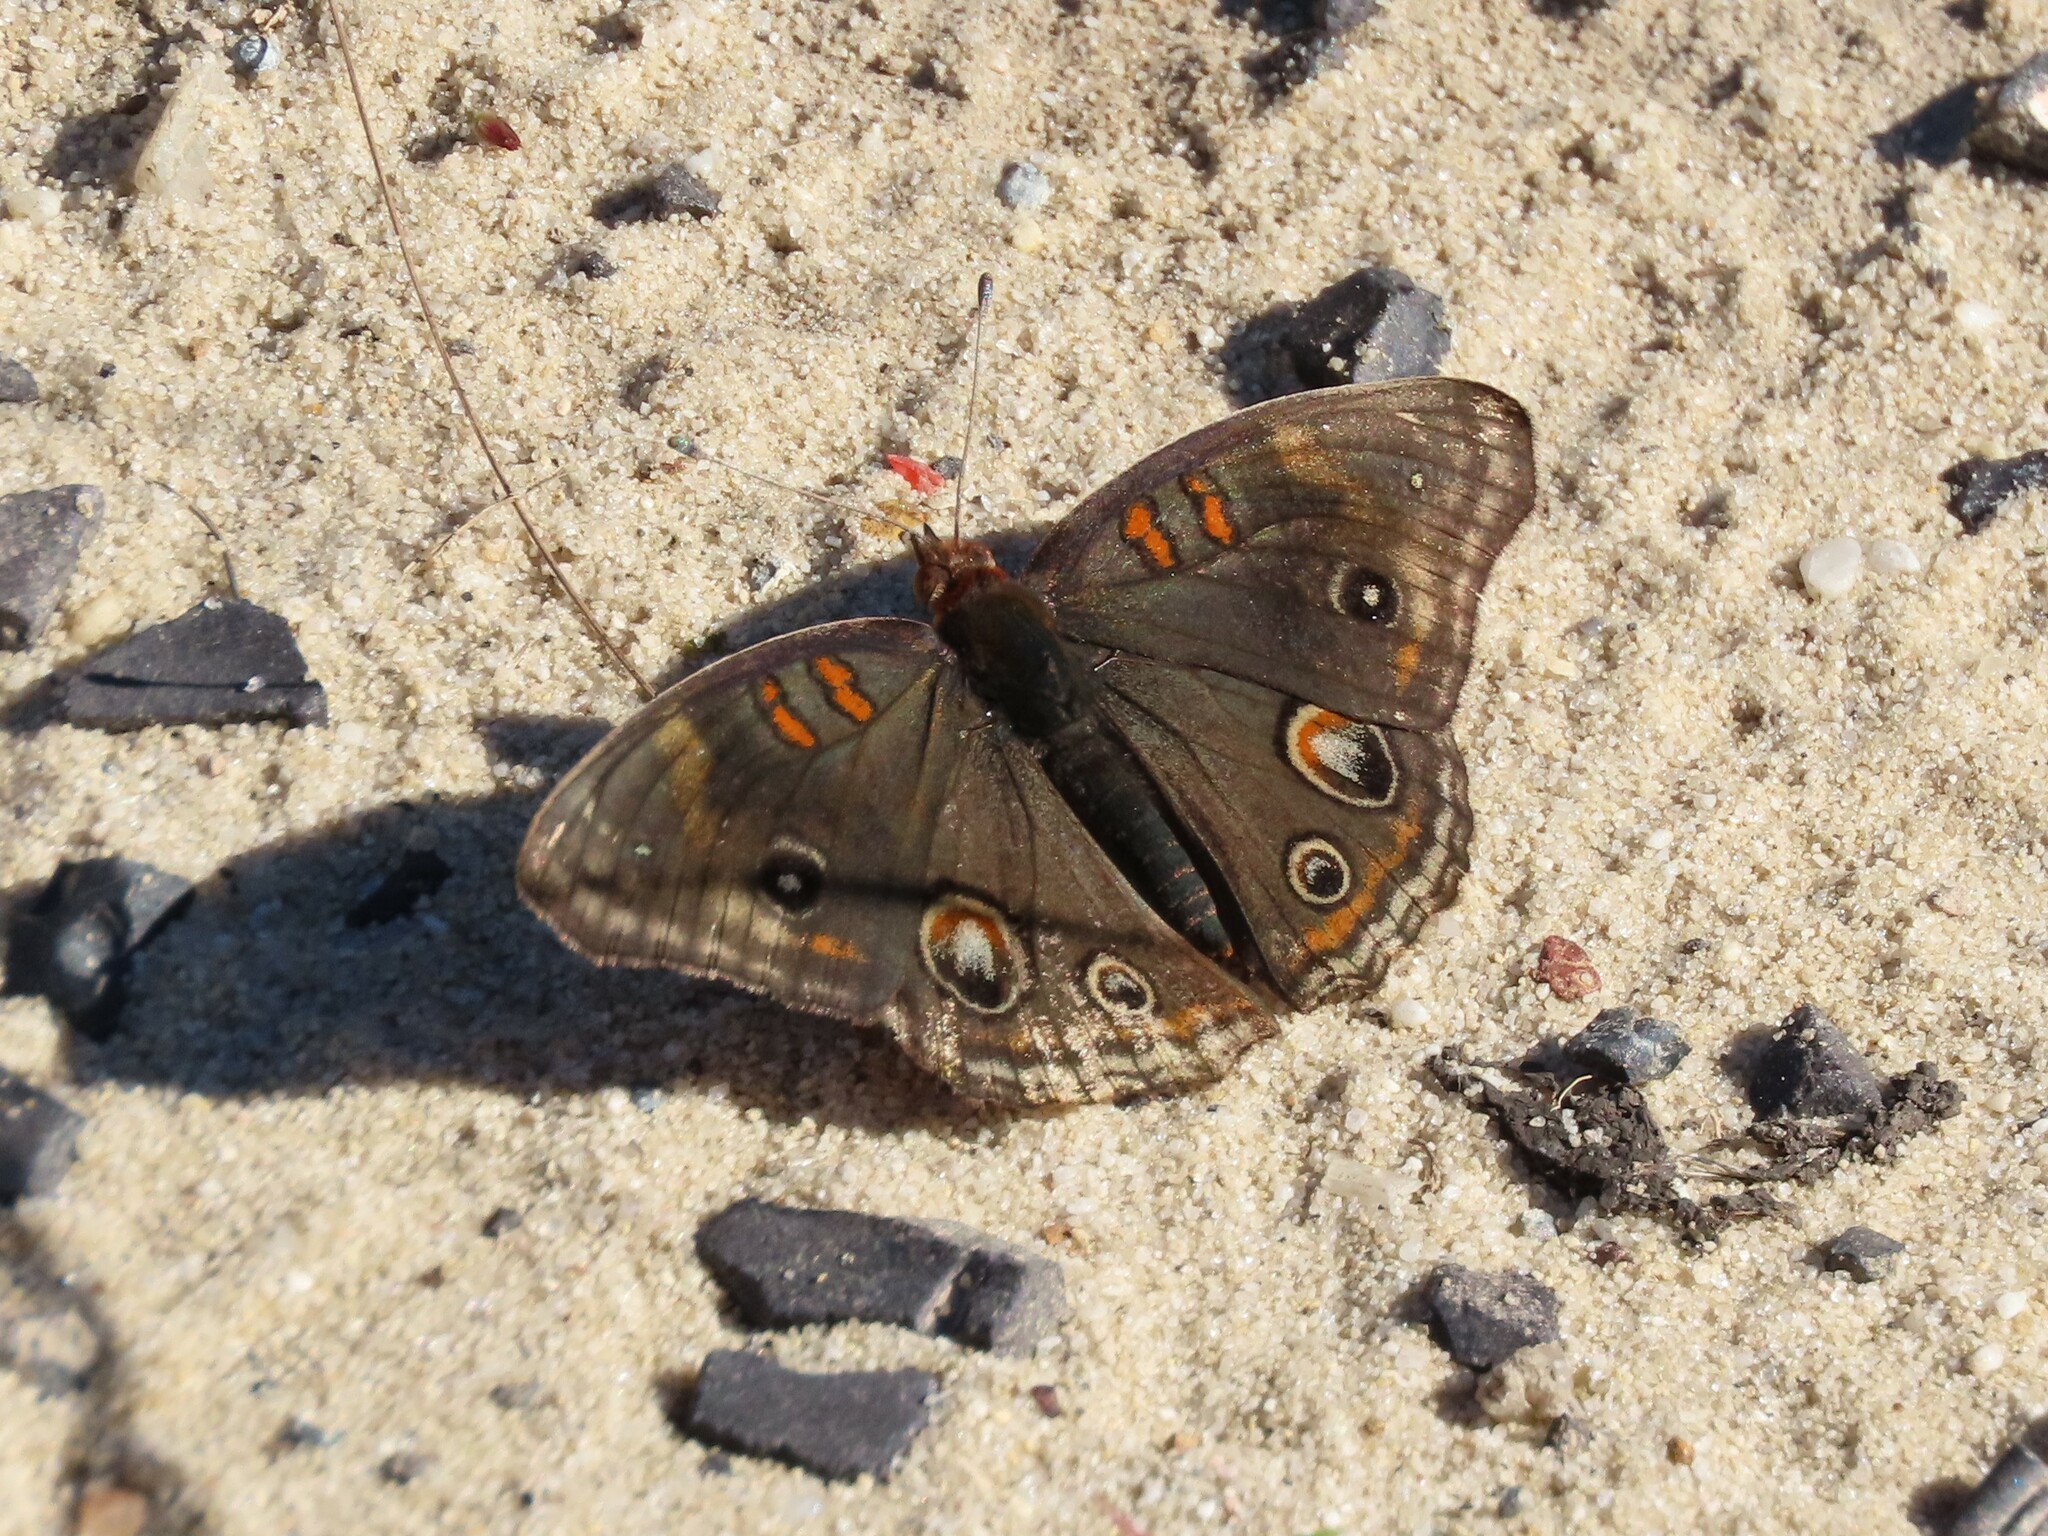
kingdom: Animalia
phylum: Arthropoda
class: Insecta
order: Lepidoptera
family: Nymphalidae
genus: Junonia
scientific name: Junonia coenia
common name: Common buckeye
